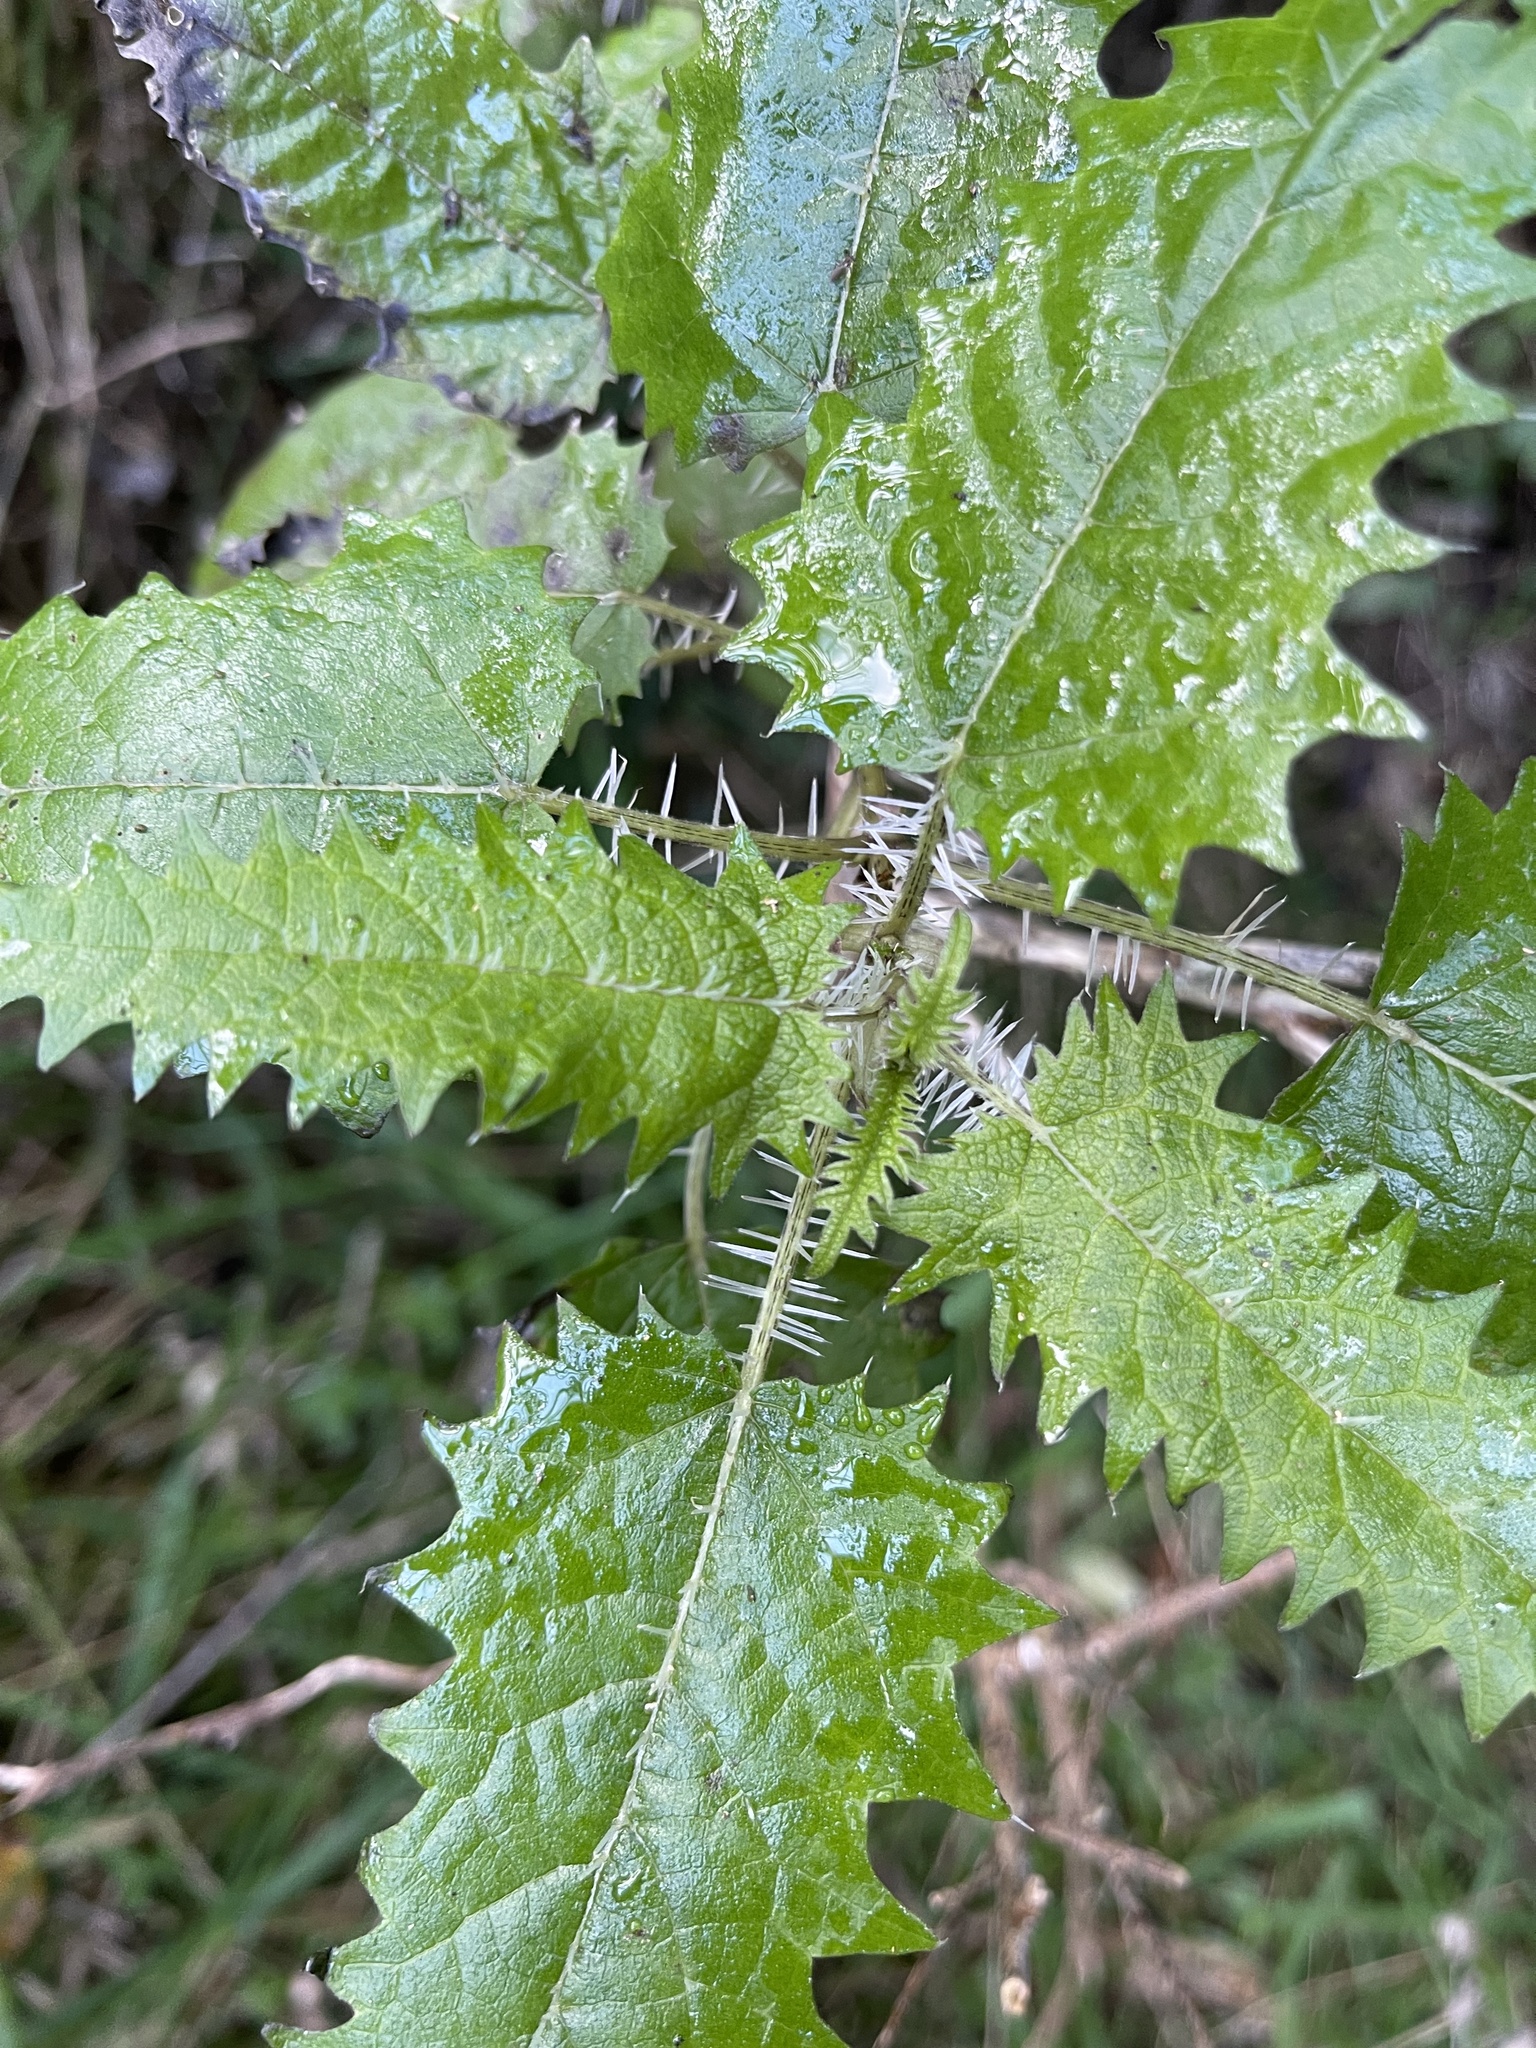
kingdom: Plantae
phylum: Tracheophyta
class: Magnoliopsida
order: Rosales
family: Urticaceae
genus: Urtica
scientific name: Urtica ferox
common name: Tree nettle
